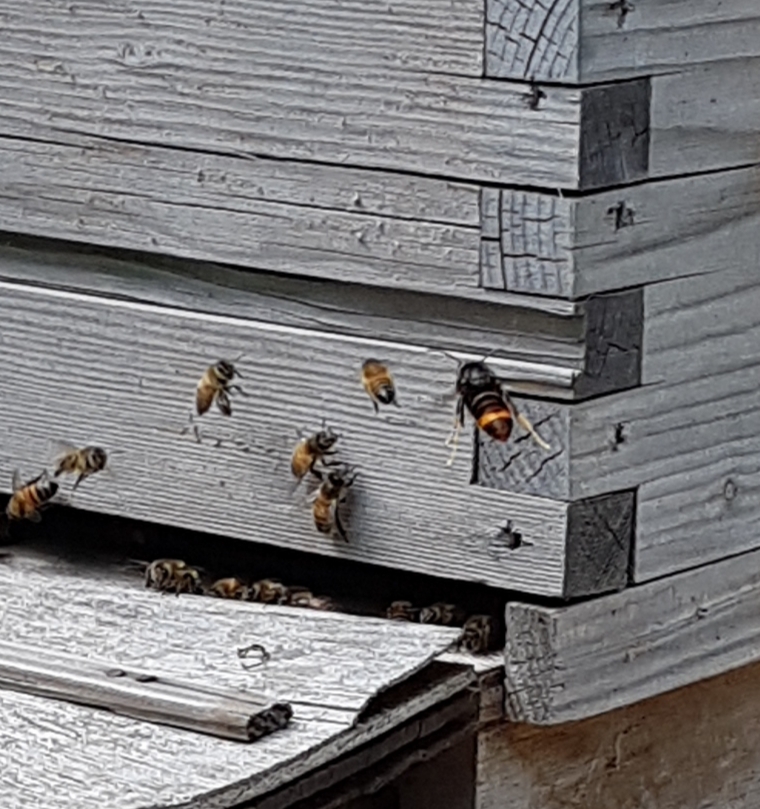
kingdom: Animalia
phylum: Arthropoda
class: Insecta
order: Hymenoptera
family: Vespidae
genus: Vespa
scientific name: Vespa velutina
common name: Asian hornet
